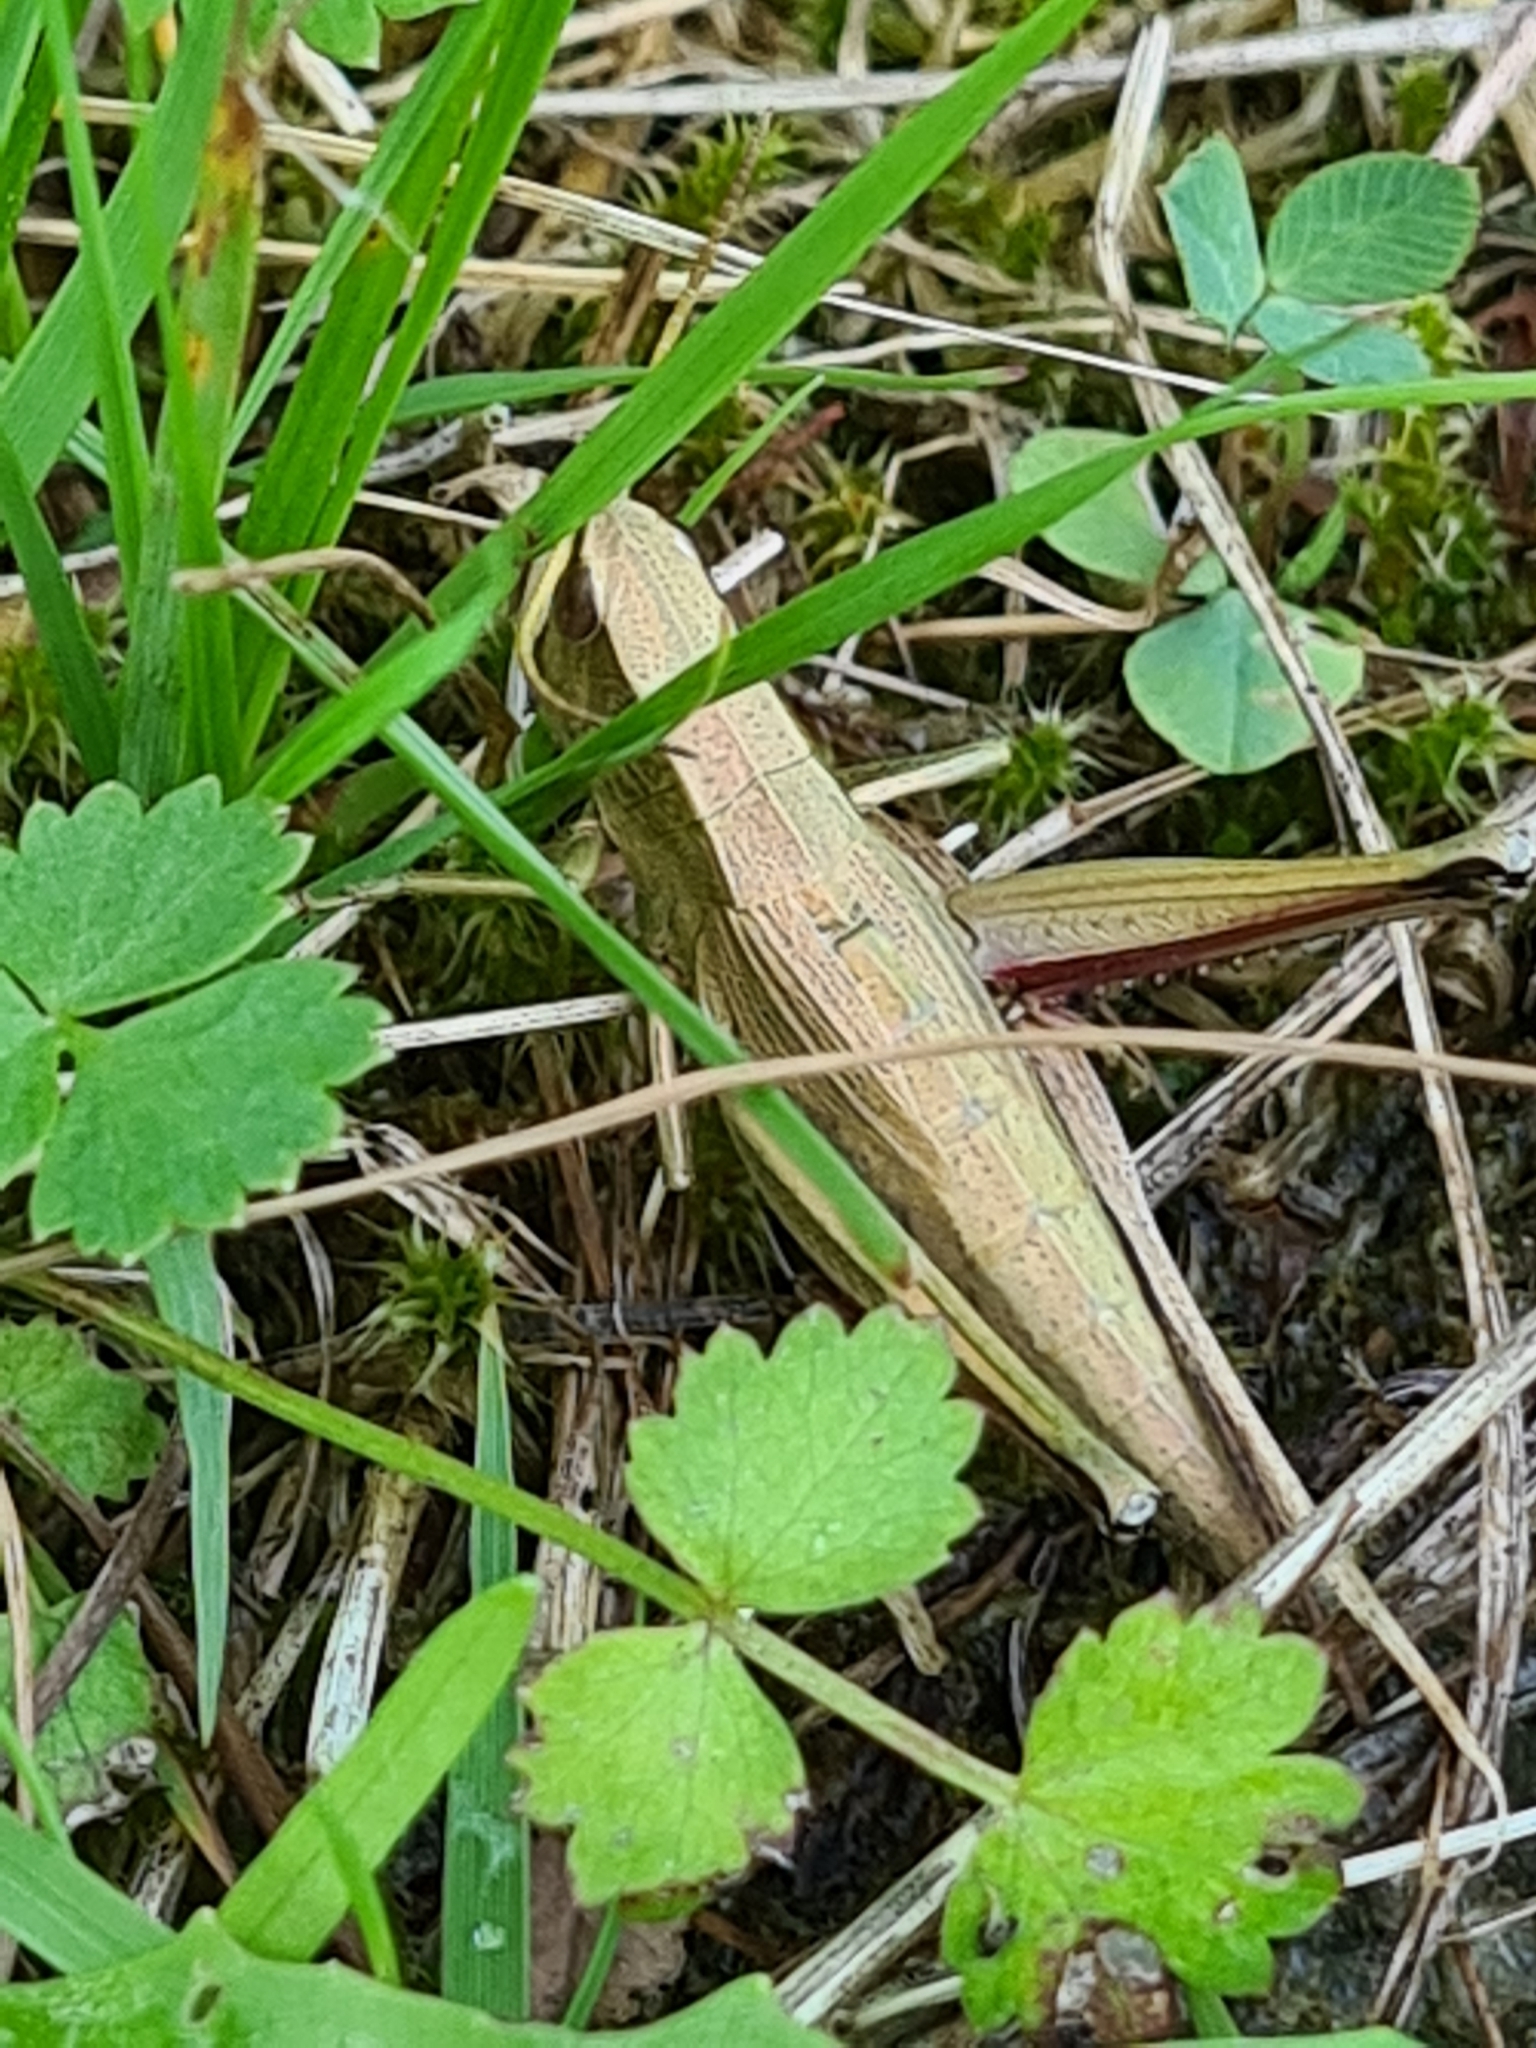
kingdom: Animalia
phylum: Arthropoda
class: Insecta
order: Orthoptera
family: Acrididae
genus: Chrysochraon
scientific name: Chrysochraon dispar
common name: Large gold grasshopper
